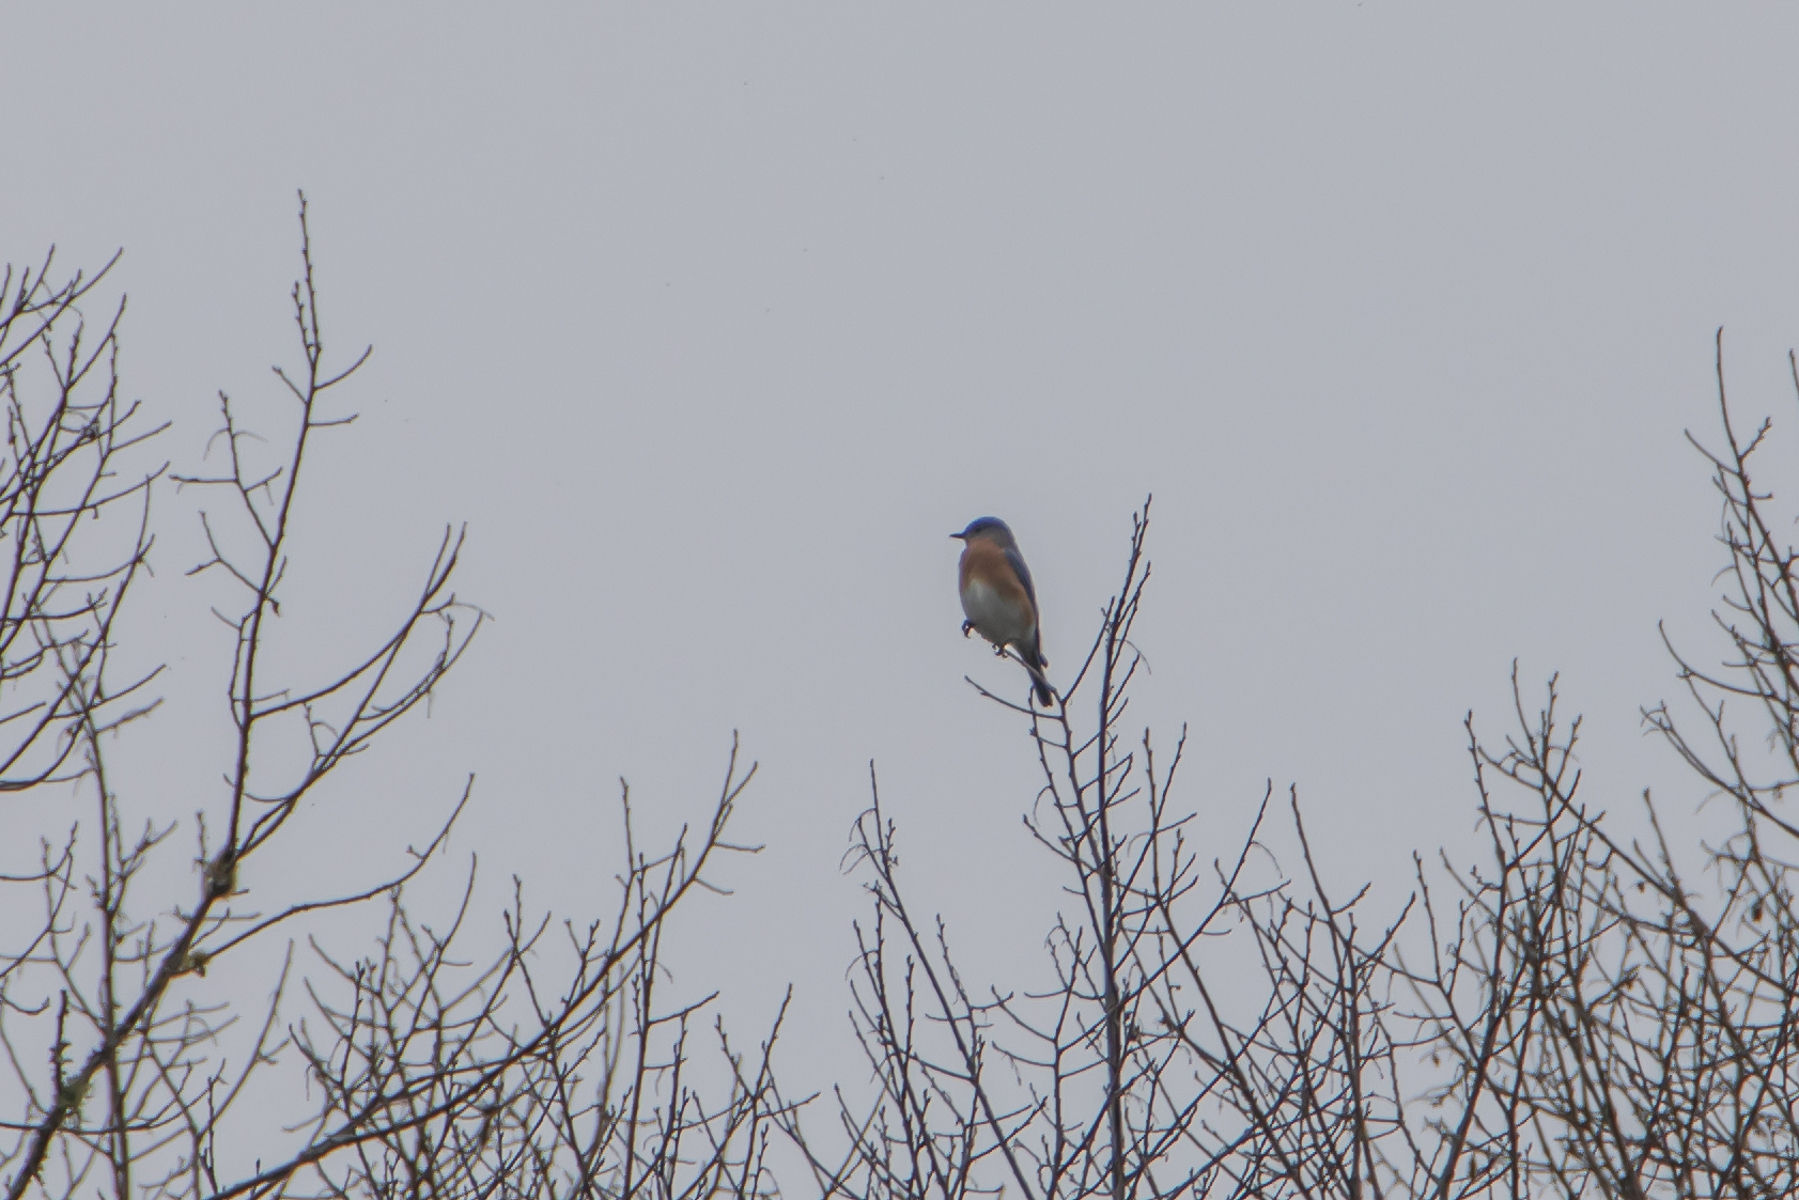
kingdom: Animalia
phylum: Chordata
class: Aves
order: Passeriformes
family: Turdidae
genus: Sialia
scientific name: Sialia sialis
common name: Eastern bluebird
